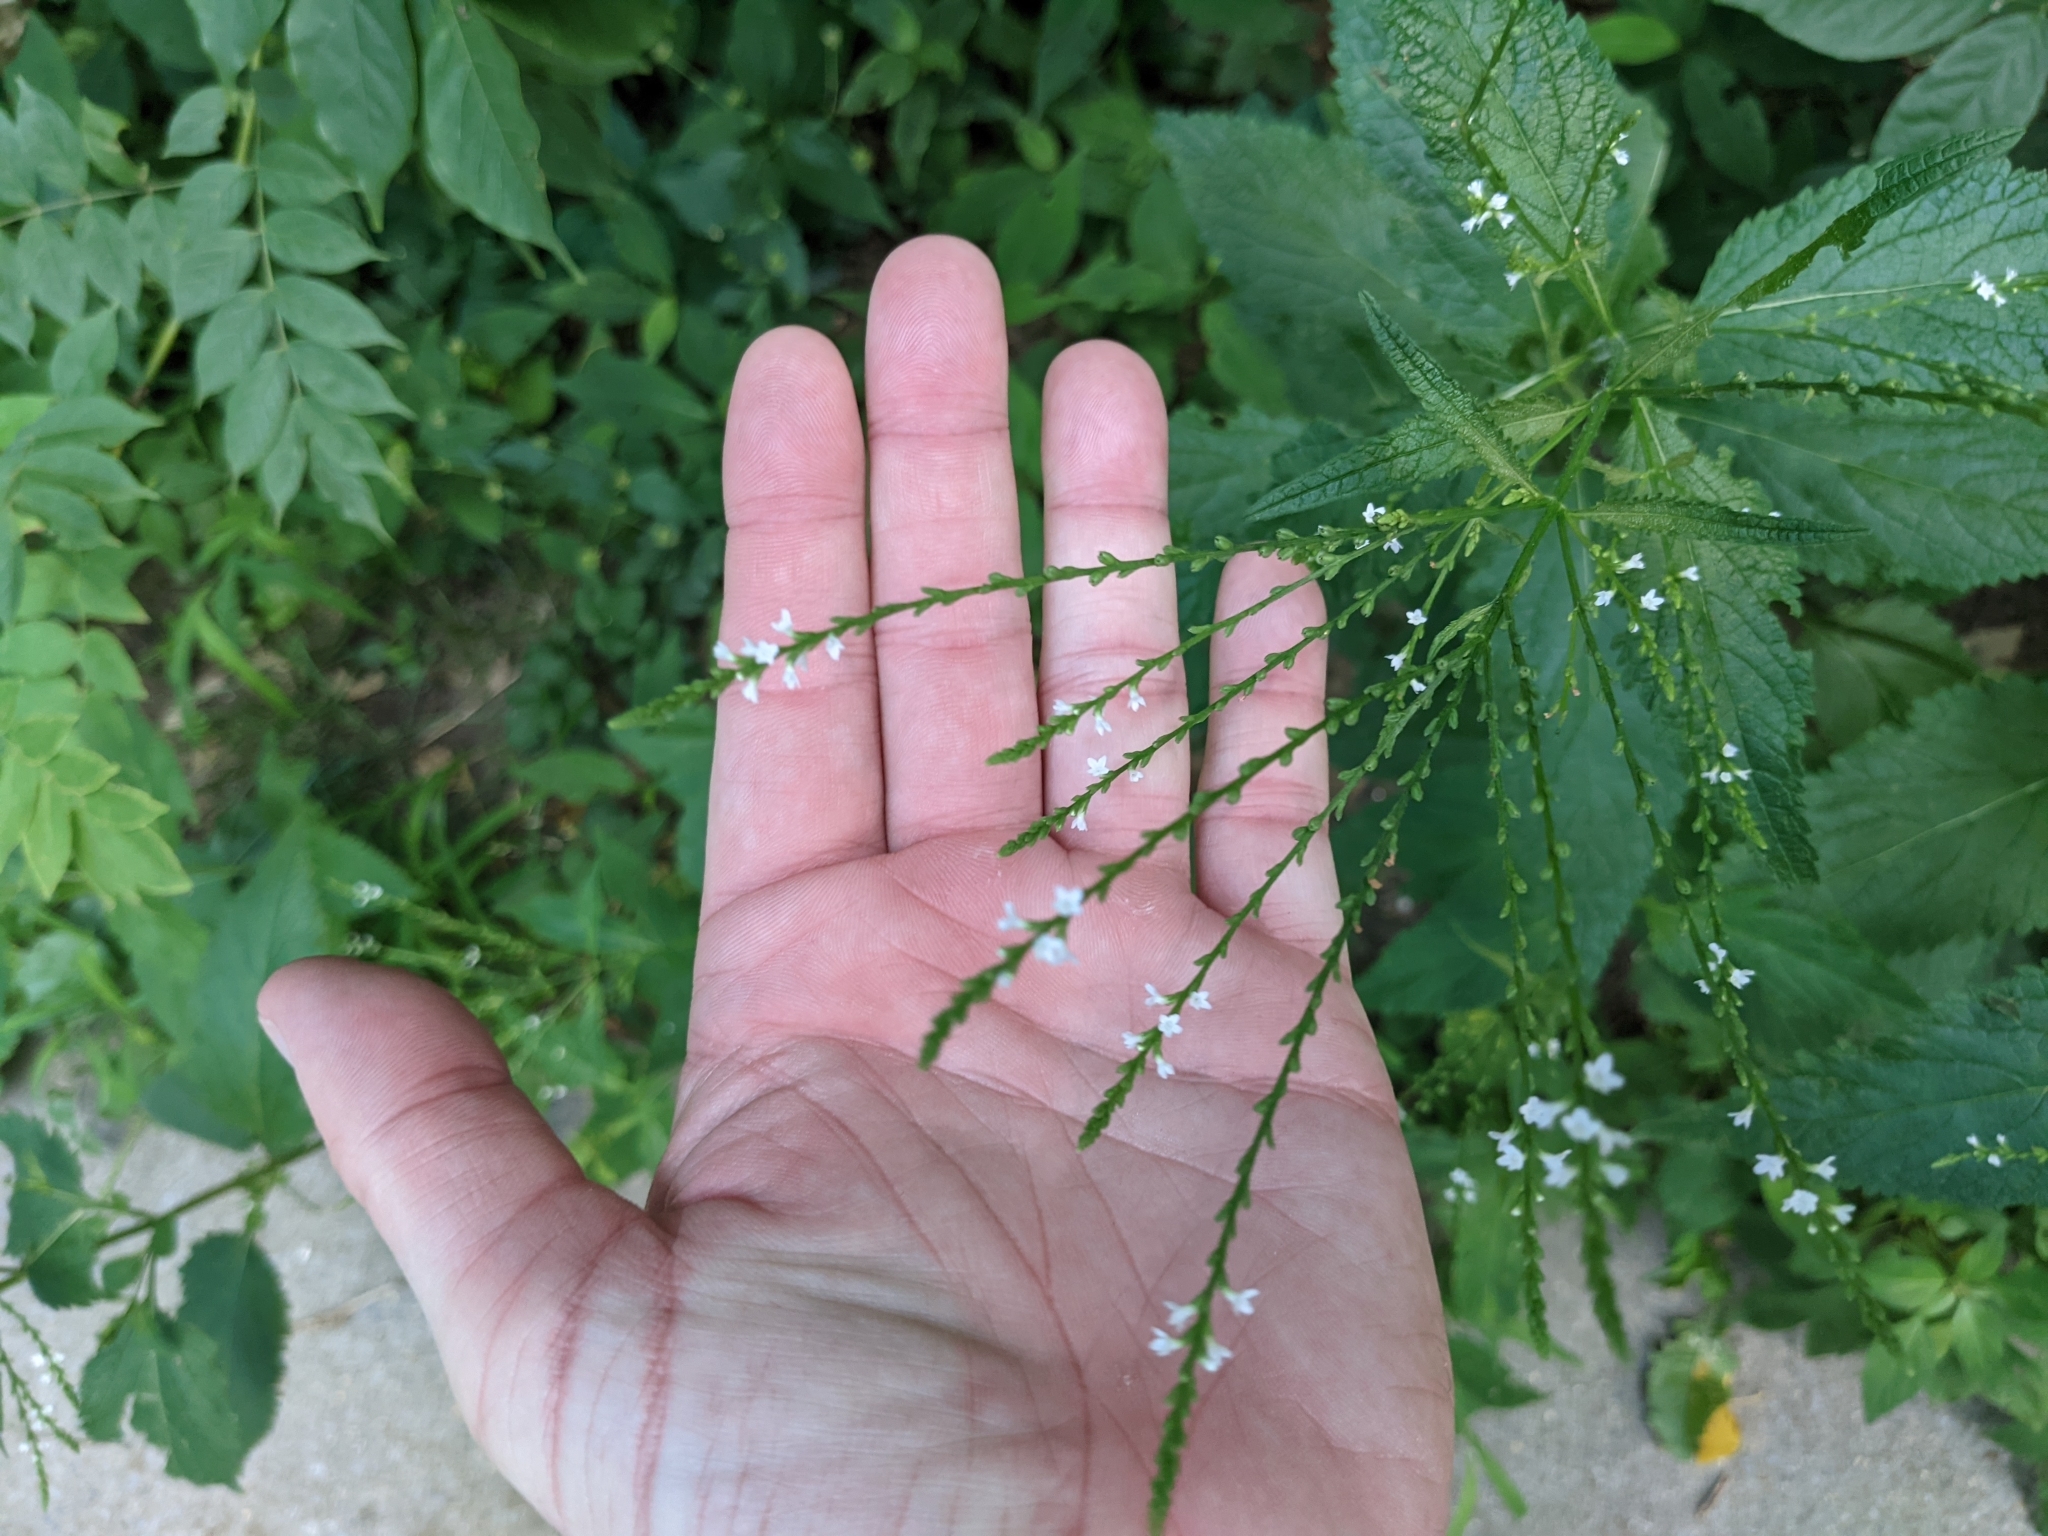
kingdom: Plantae
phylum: Tracheophyta
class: Magnoliopsida
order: Lamiales
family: Verbenaceae
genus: Verbena
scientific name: Verbena urticifolia
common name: Nettle-leaved vervain
